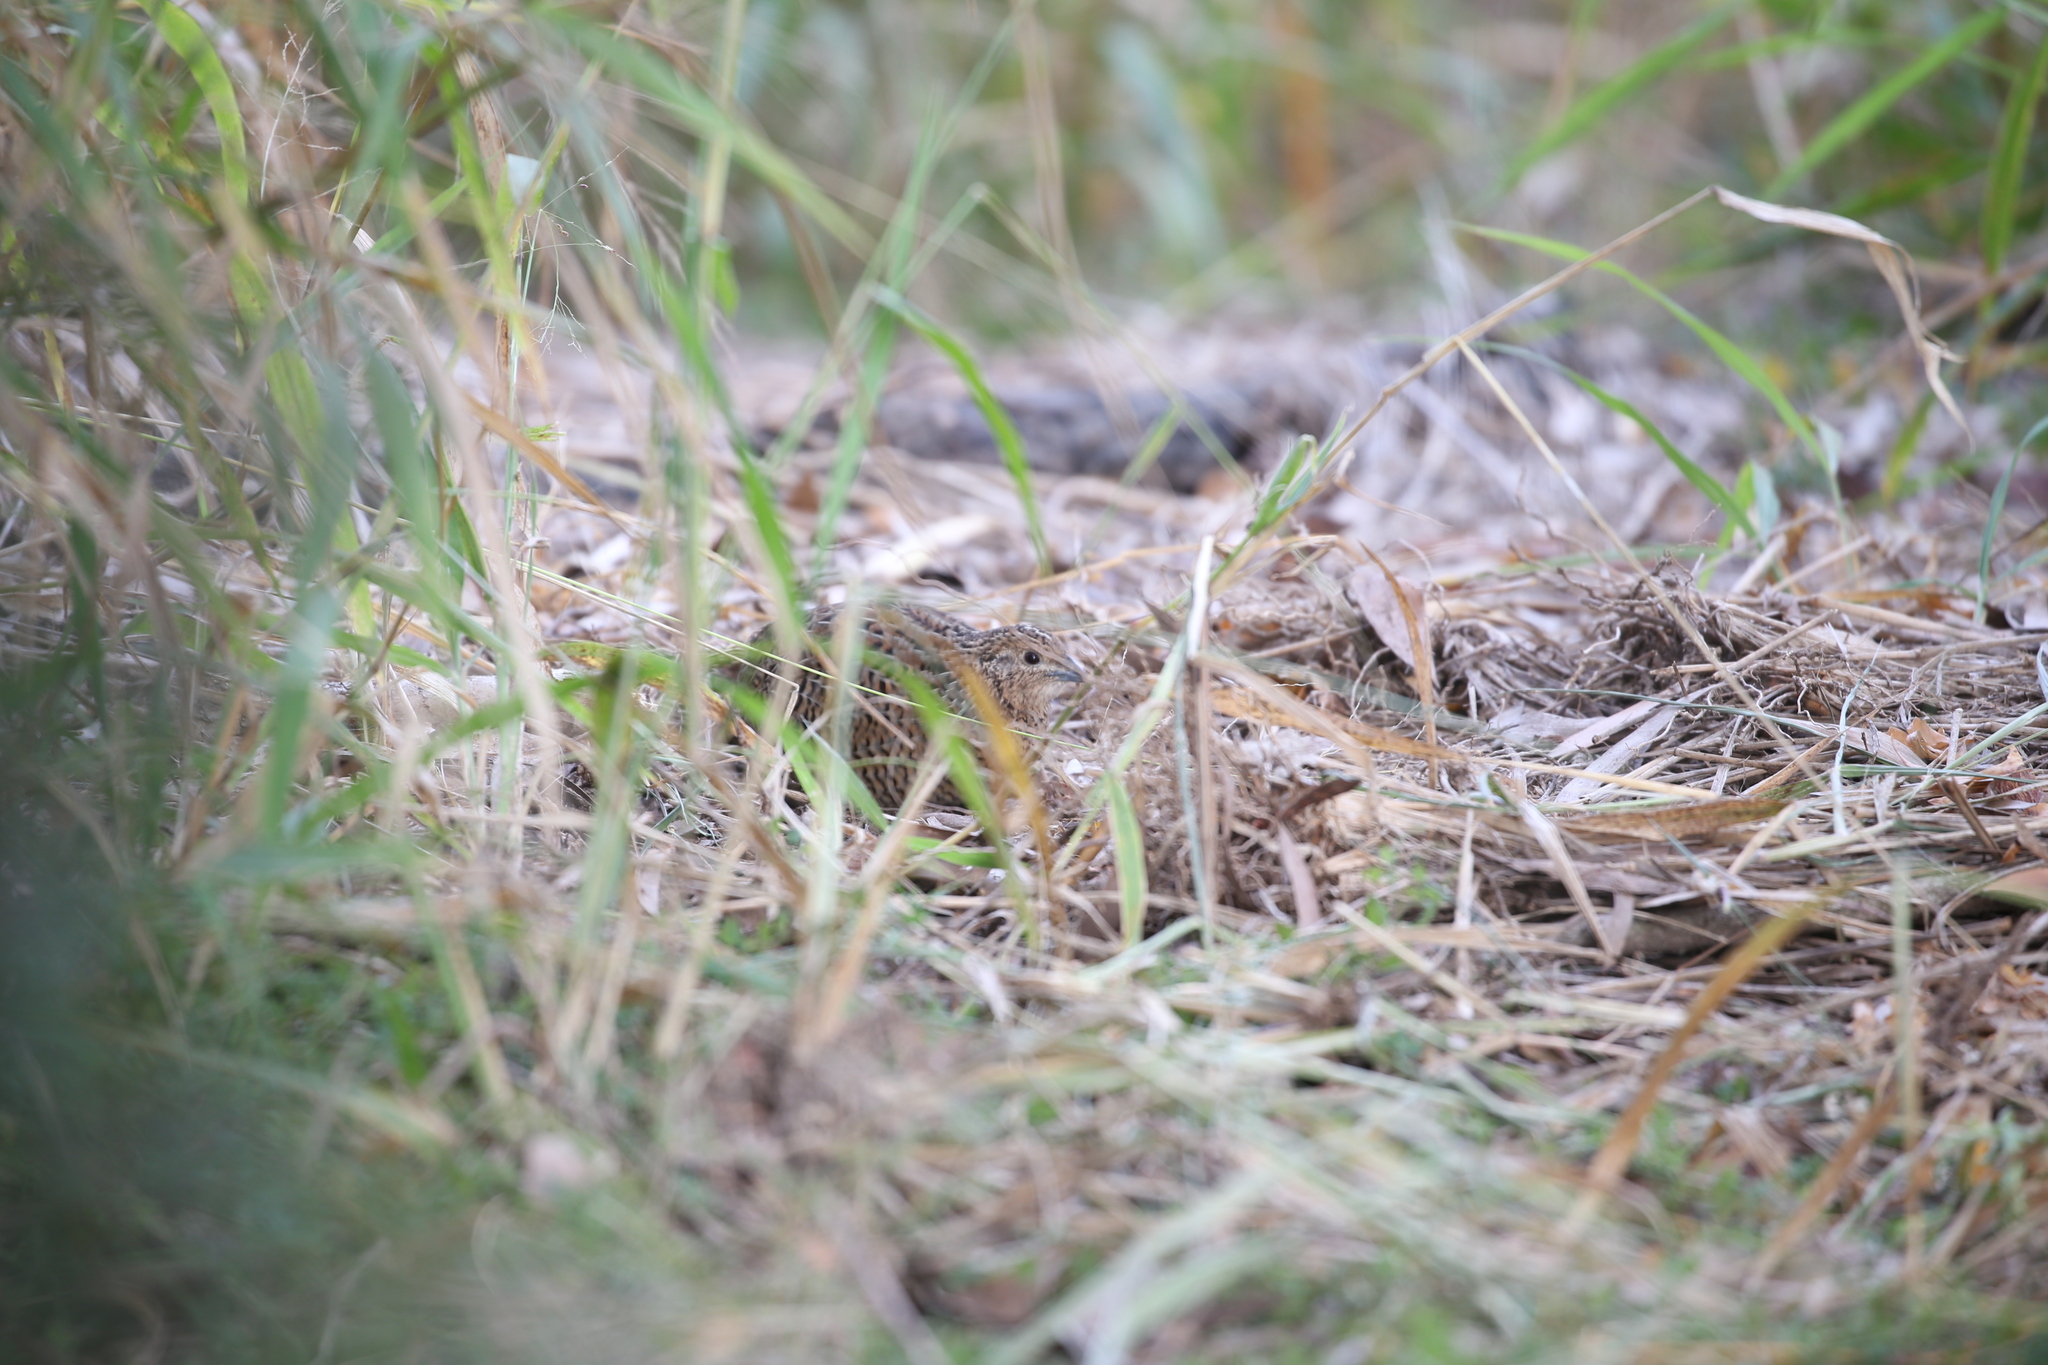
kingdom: Animalia
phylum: Chordata
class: Aves
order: Galliformes
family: Phasianidae
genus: Synoicus
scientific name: Synoicus ypsilophorus
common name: Brown quail
